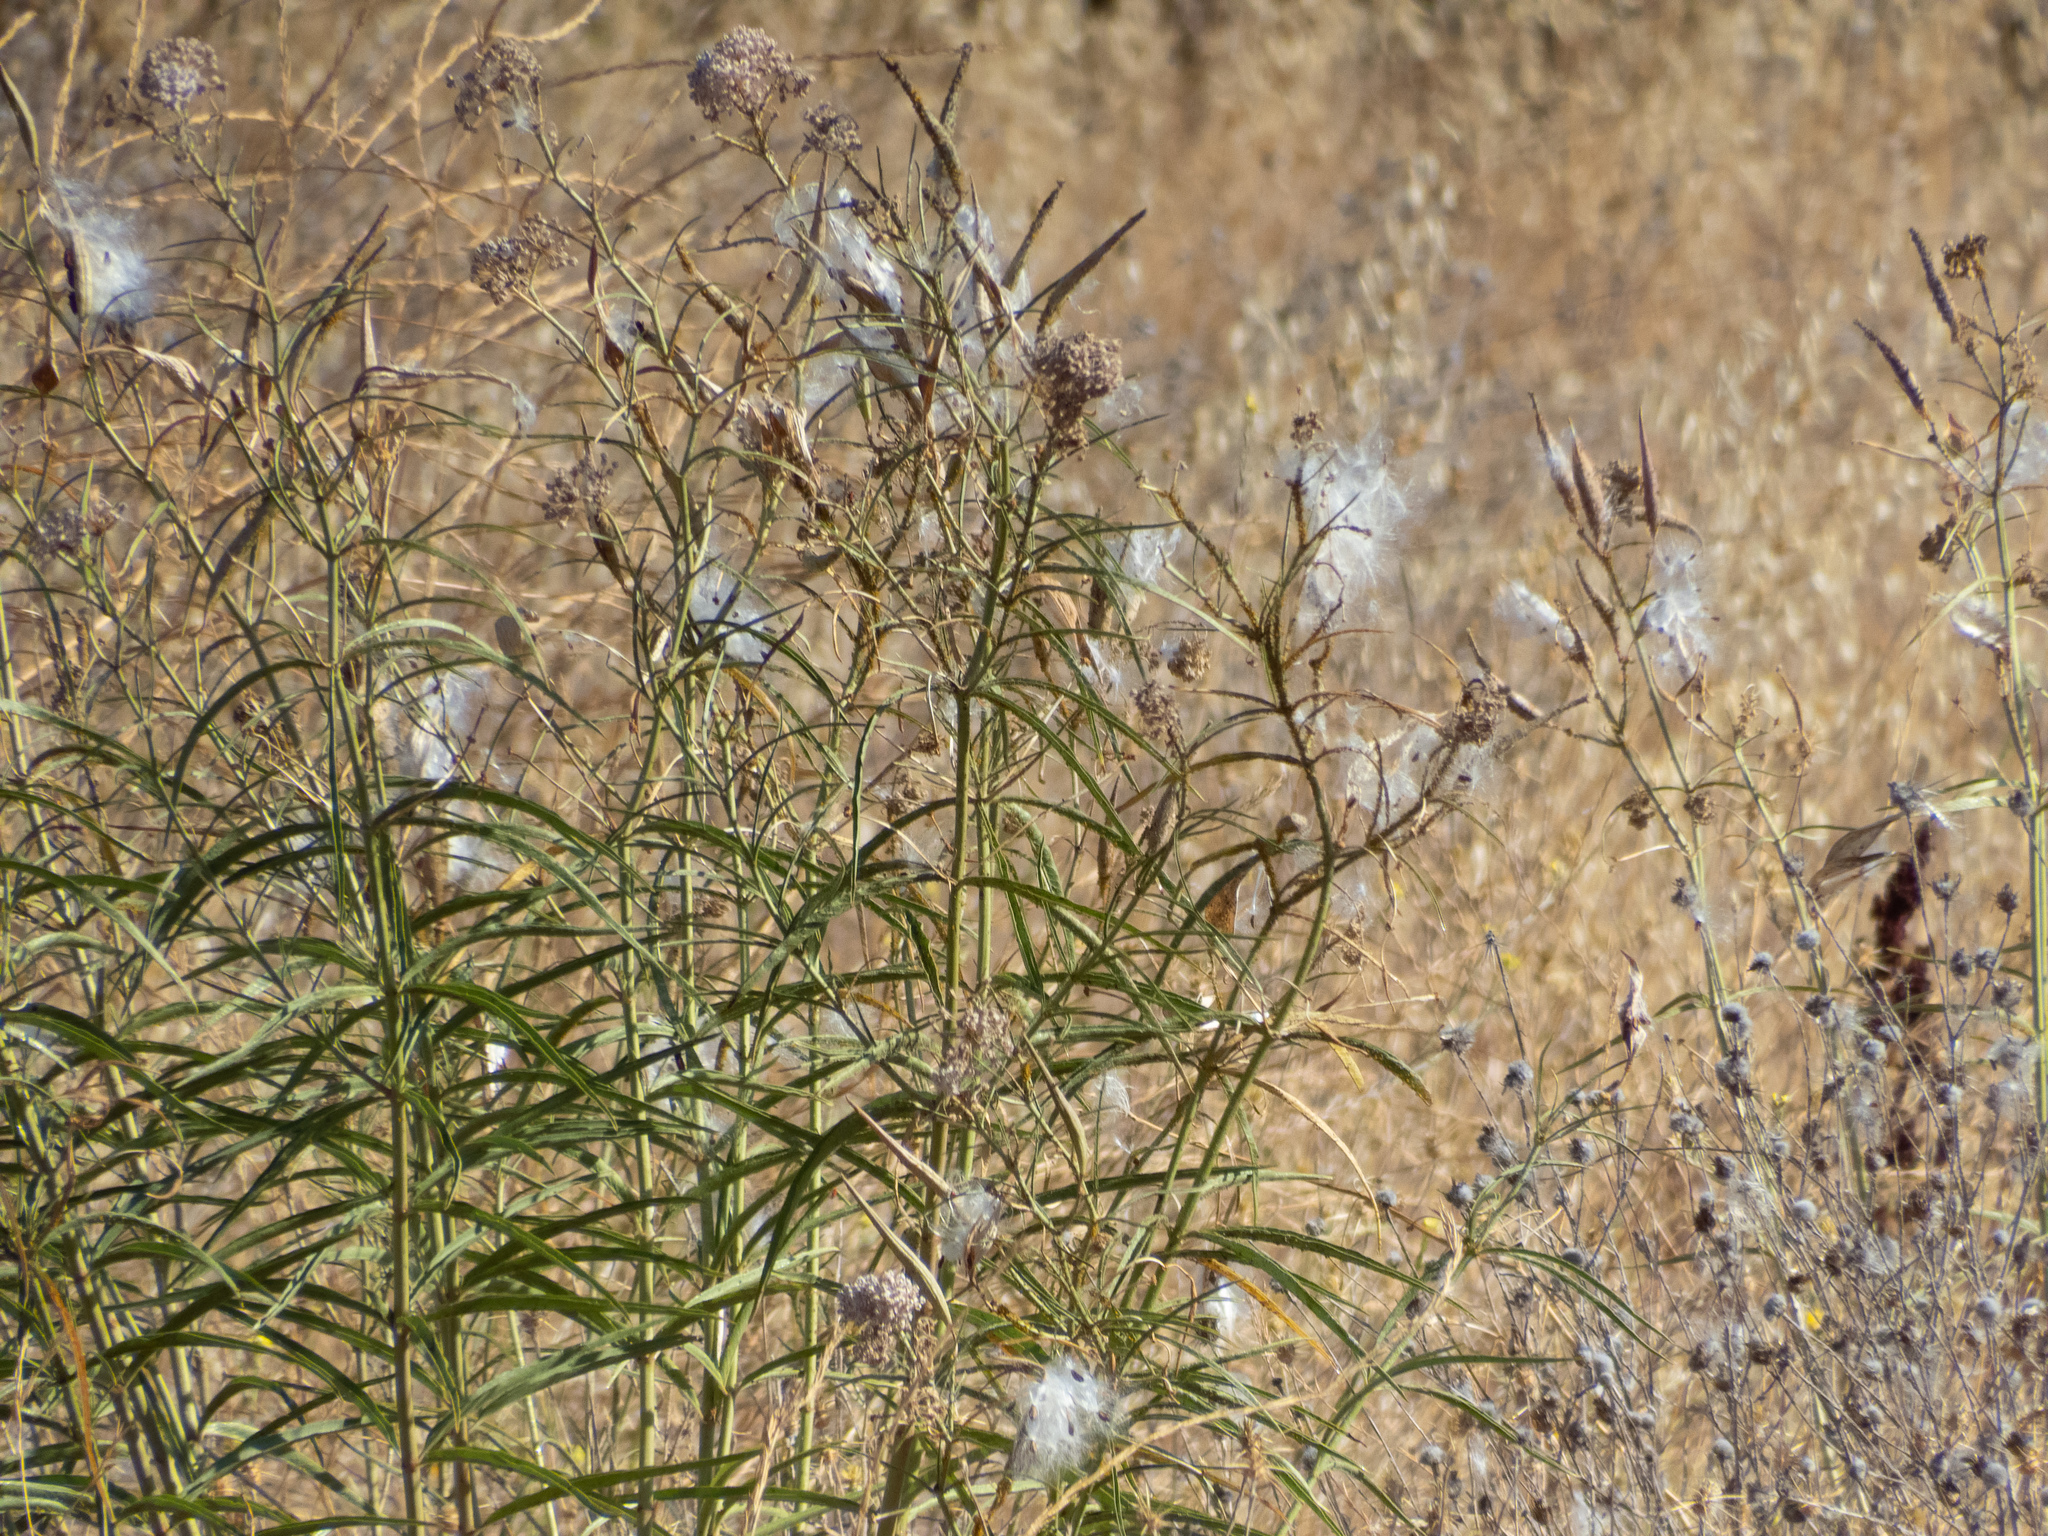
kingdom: Plantae
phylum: Tracheophyta
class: Magnoliopsida
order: Gentianales
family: Apocynaceae
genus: Asclepias
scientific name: Asclepias fascicularis
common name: Mexican milkweed
